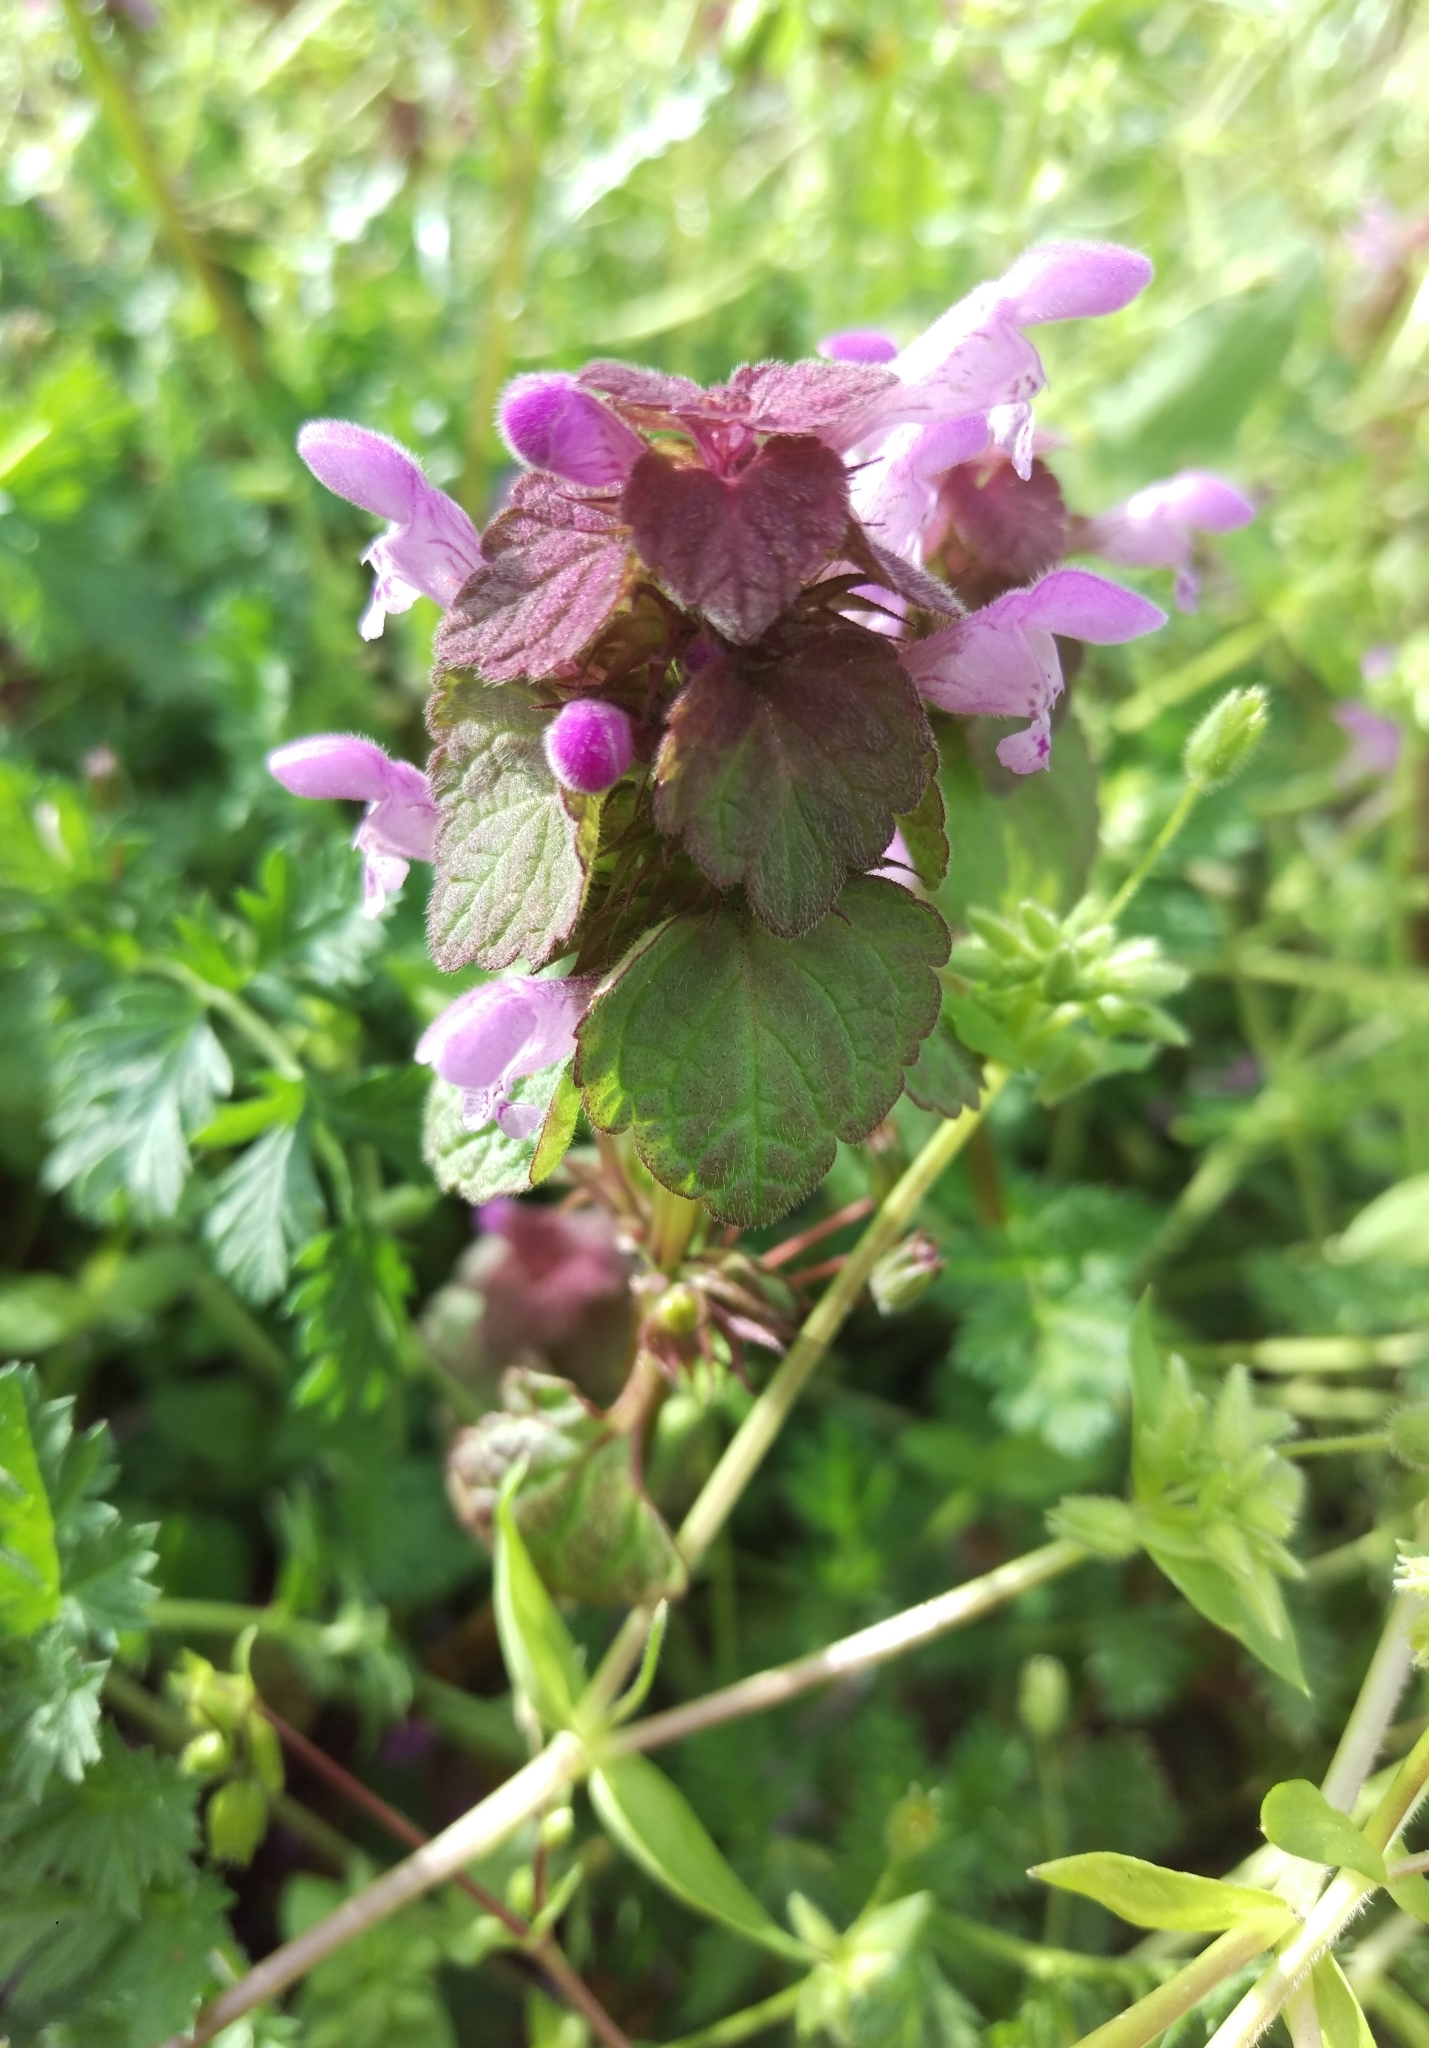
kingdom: Plantae
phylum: Tracheophyta
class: Magnoliopsida
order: Lamiales
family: Lamiaceae
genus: Lamium
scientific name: Lamium purpureum
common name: Red dead-nettle
